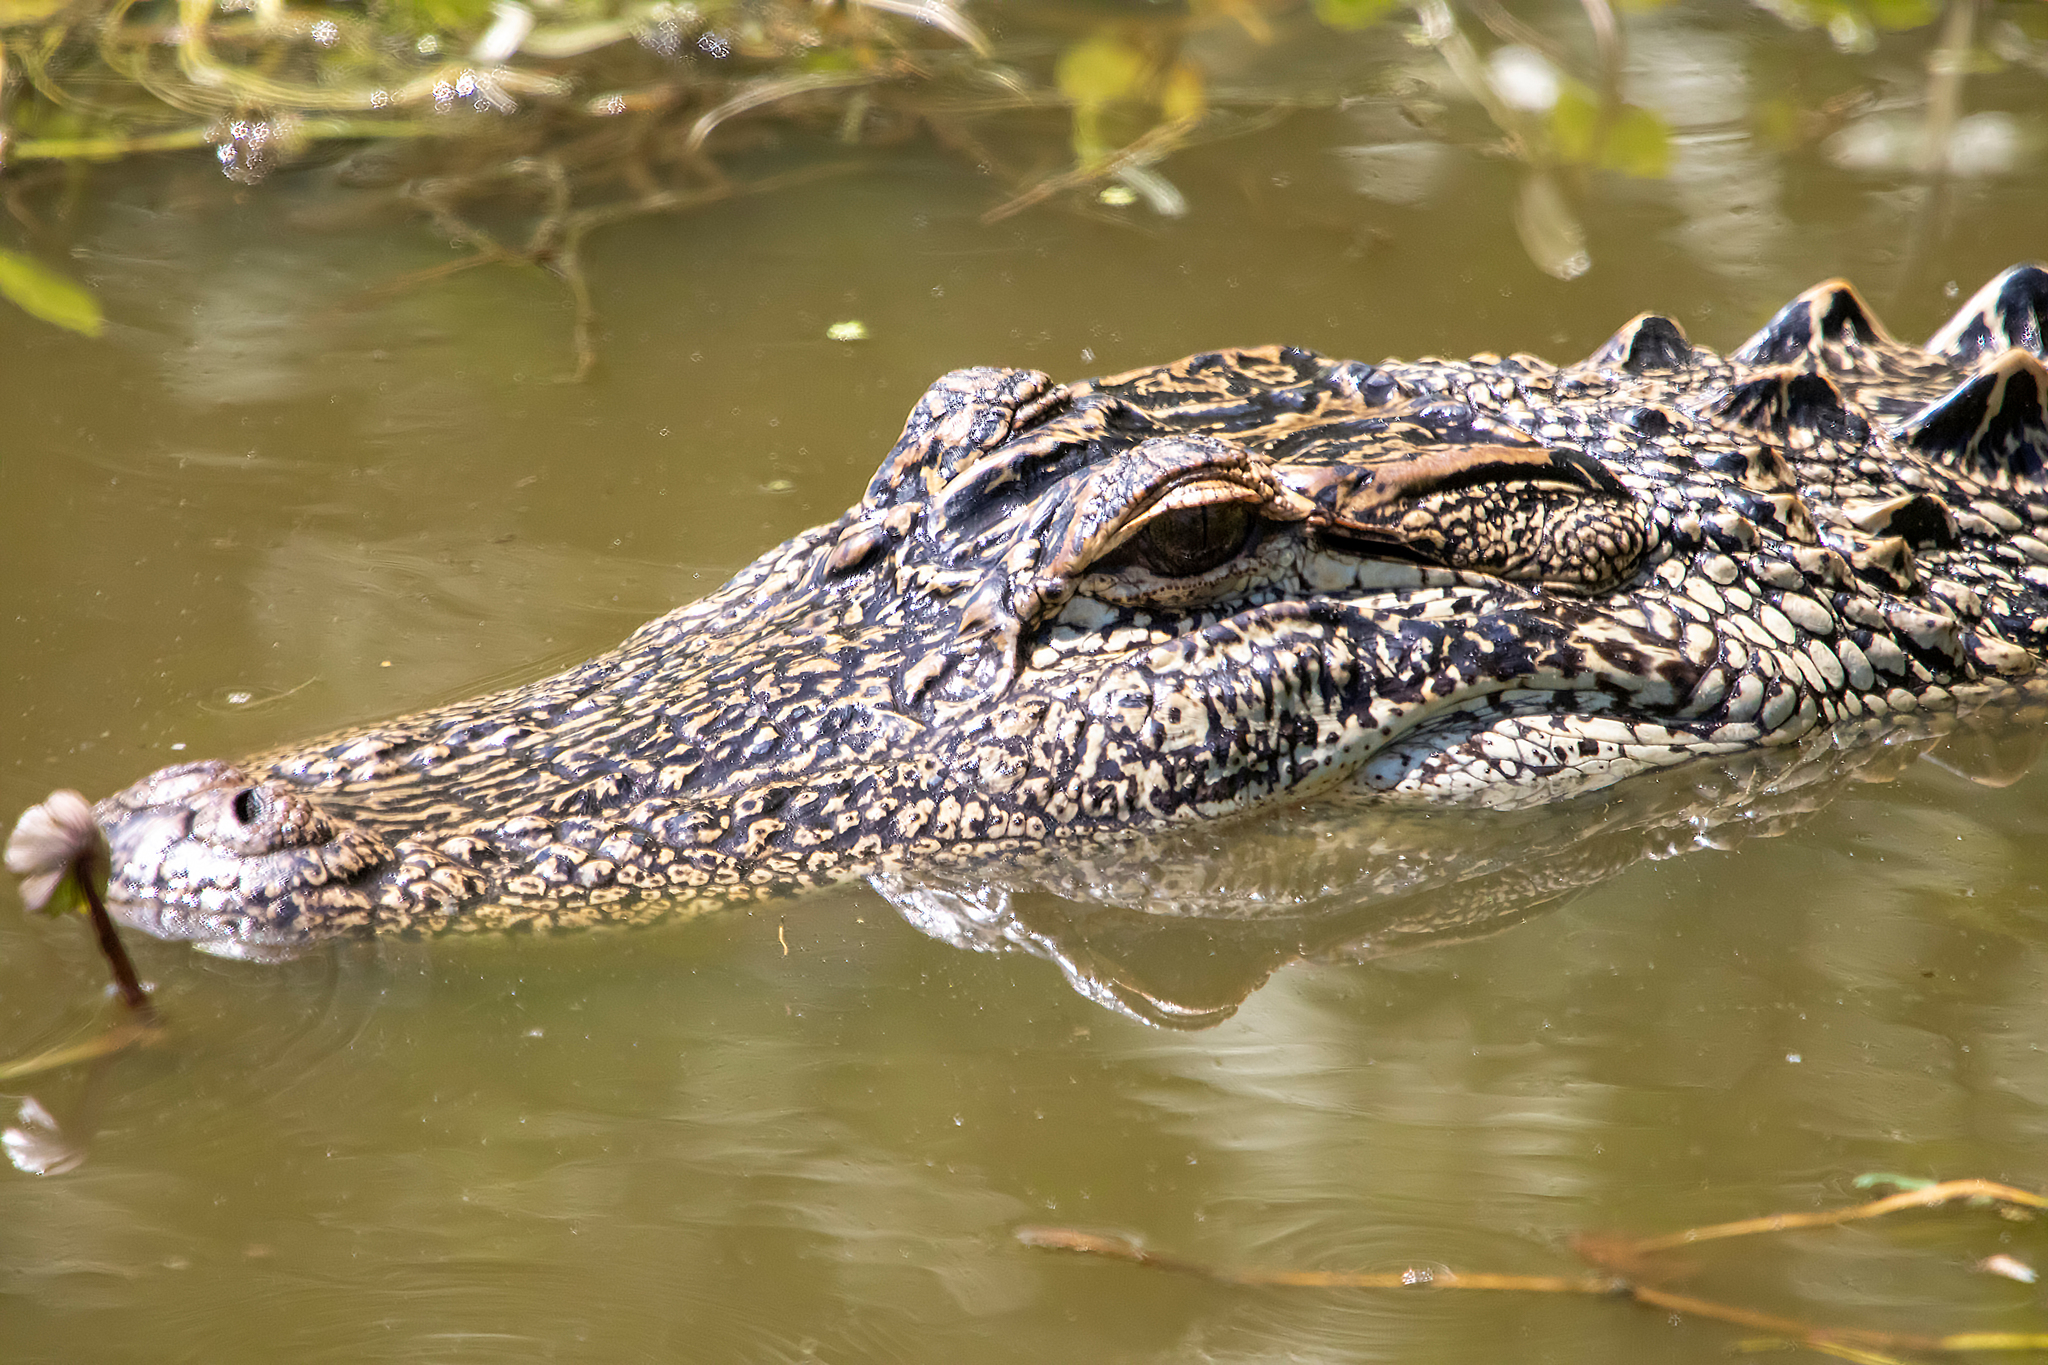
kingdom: Animalia
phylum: Chordata
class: Crocodylia
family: Alligatoridae
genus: Alligator
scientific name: Alligator mississippiensis
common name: American alligator
